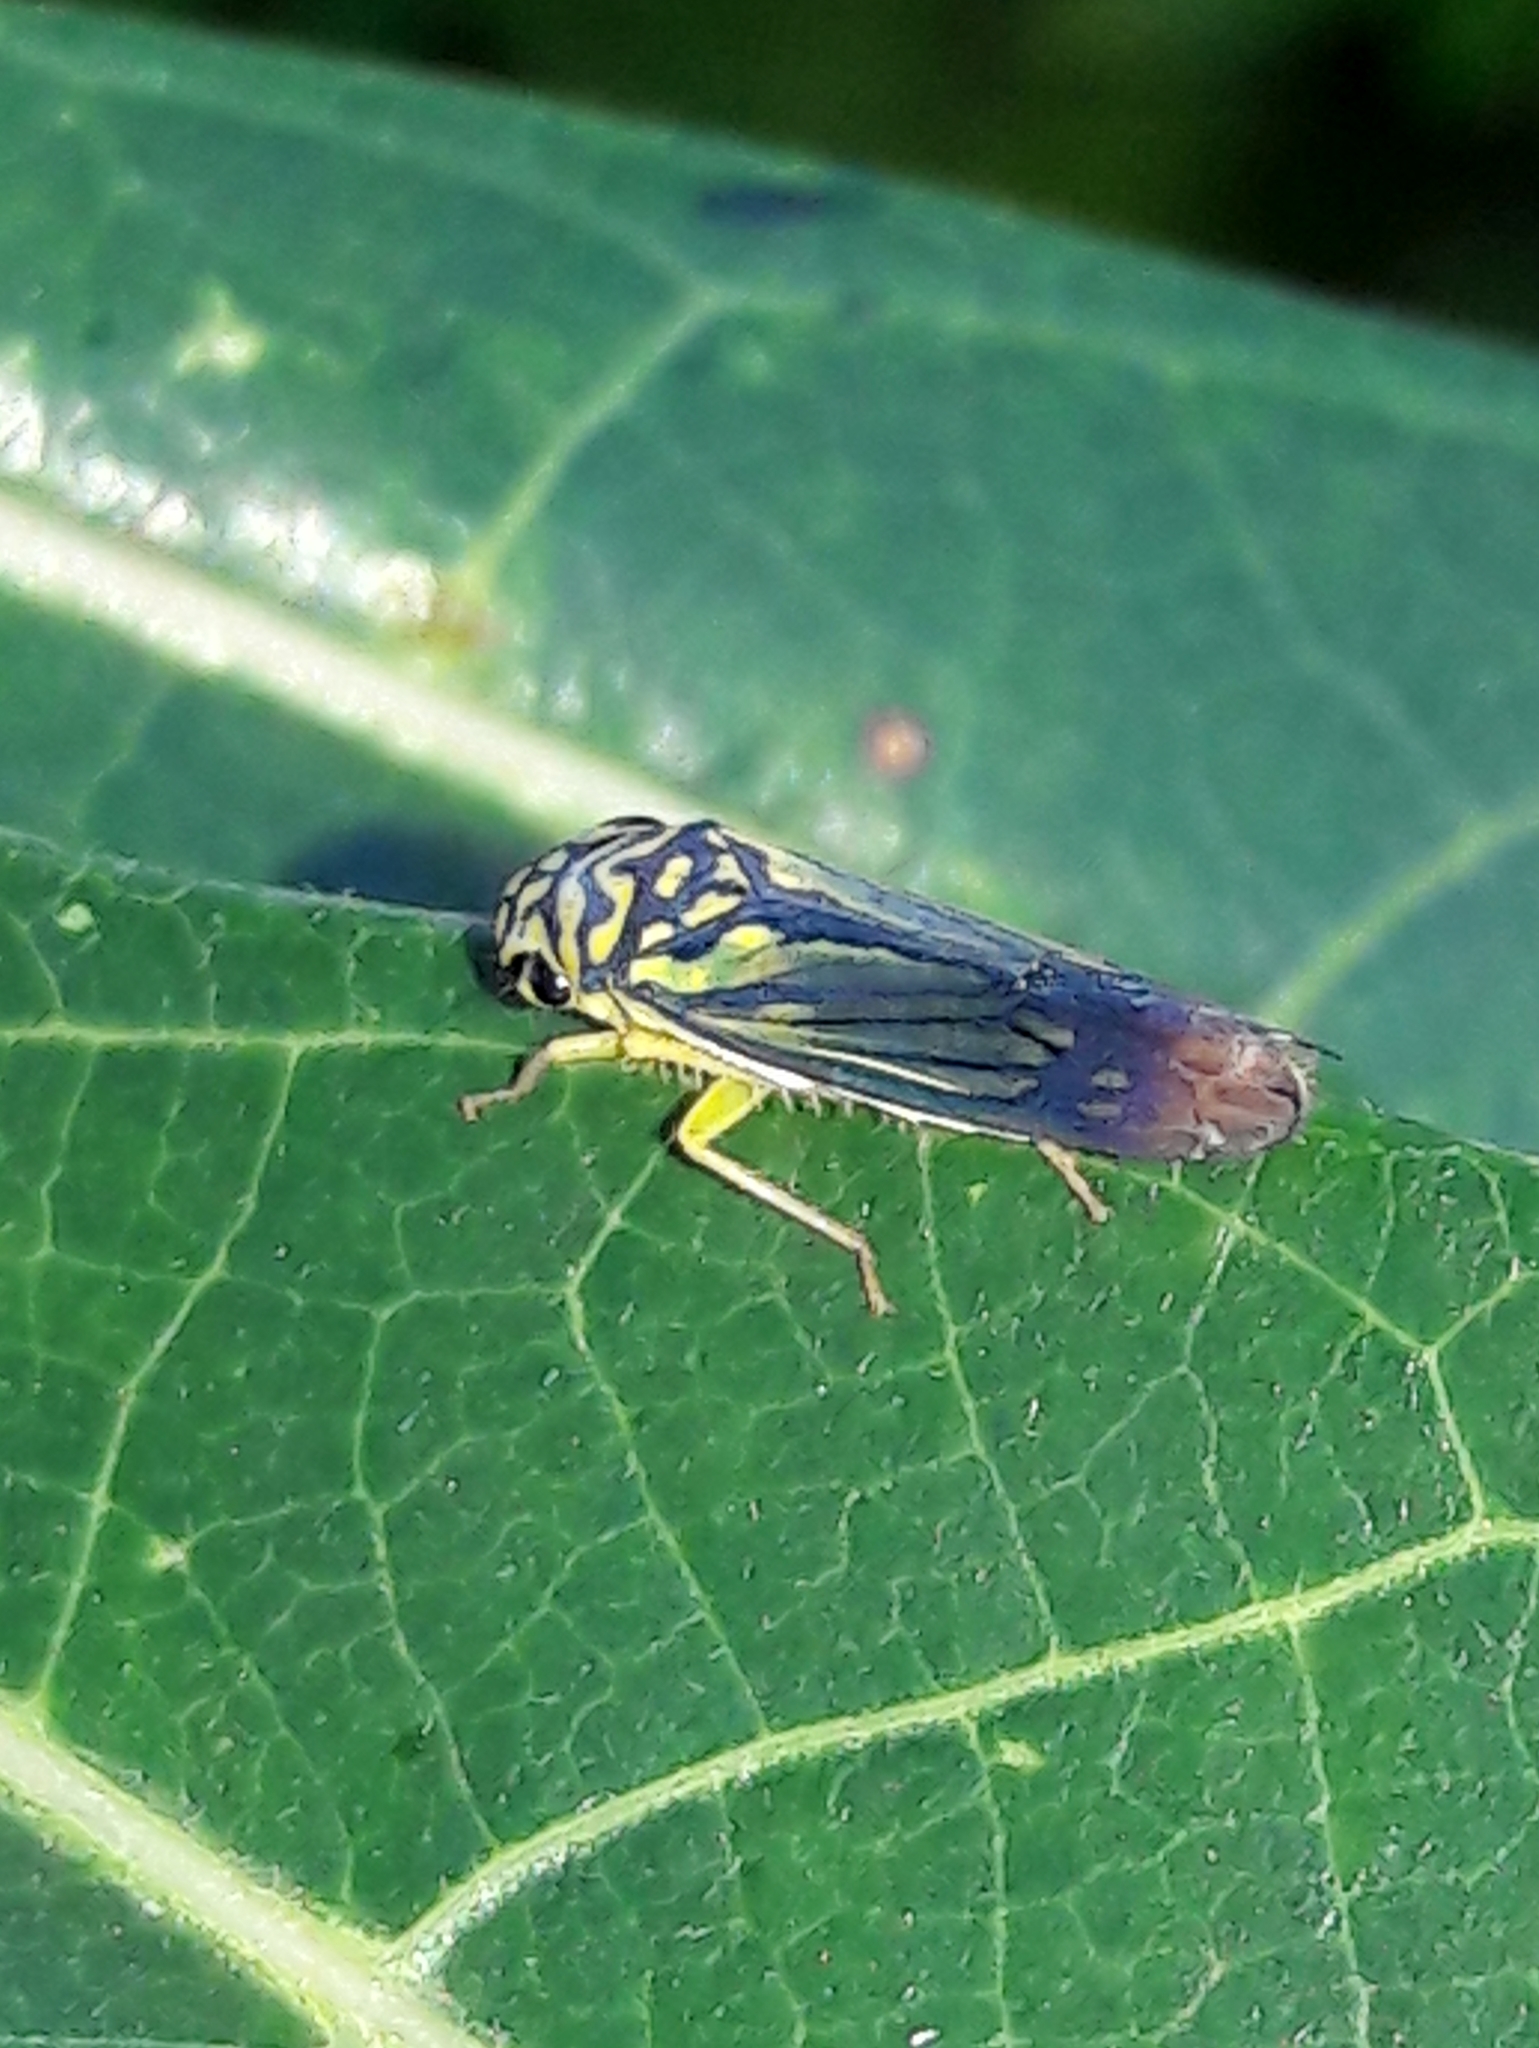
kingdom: Animalia
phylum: Arthropoda
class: Insecta
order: Hemiptera
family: Cicadellidae
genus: Dilobopterus
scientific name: Dilobopterus costalimai
